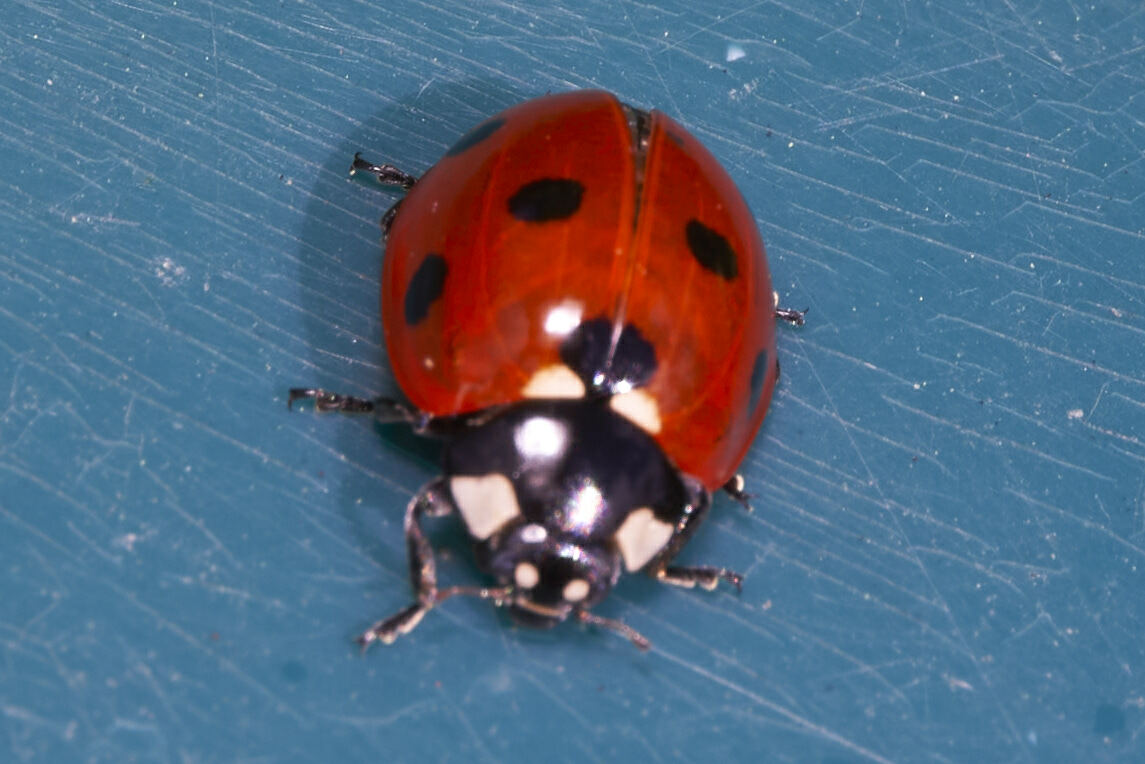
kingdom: Animalia
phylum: Arthropoda
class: Insecta
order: Coleoptera
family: Coccinellidae
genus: Coccinella
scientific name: Coccinella septempunctata
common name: Sevenspotted lady beetle
